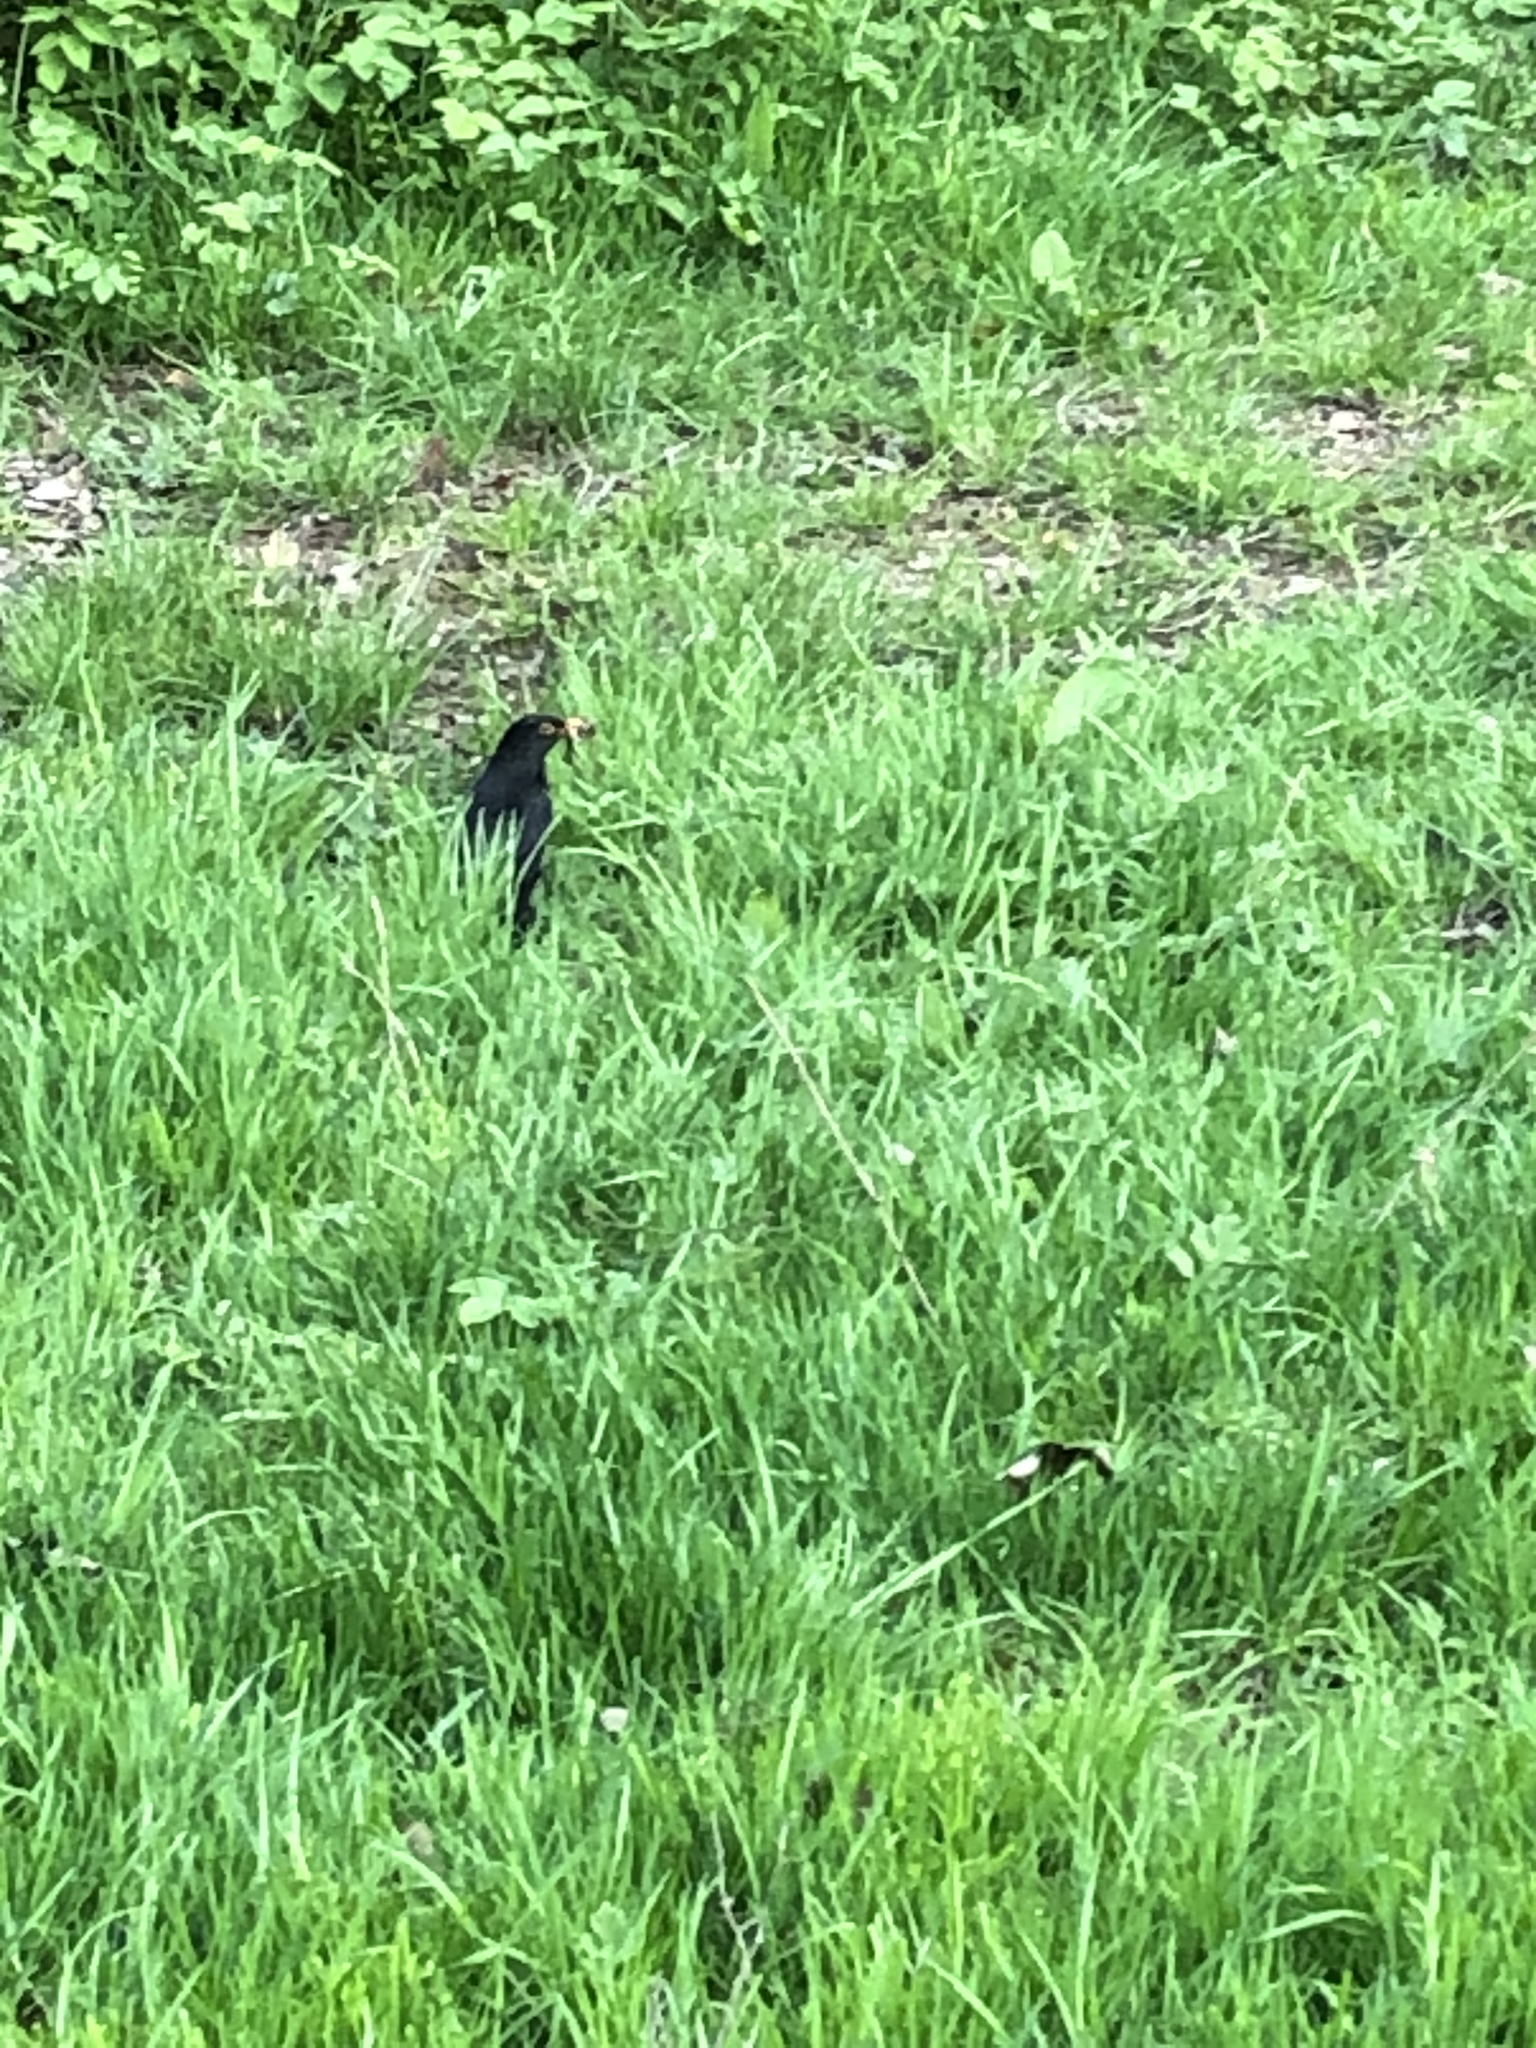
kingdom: Animalia
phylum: Chordata
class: Aves
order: Passeriformes
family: Turdidae
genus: Turdus
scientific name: Turdus merula
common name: Common blackbird
